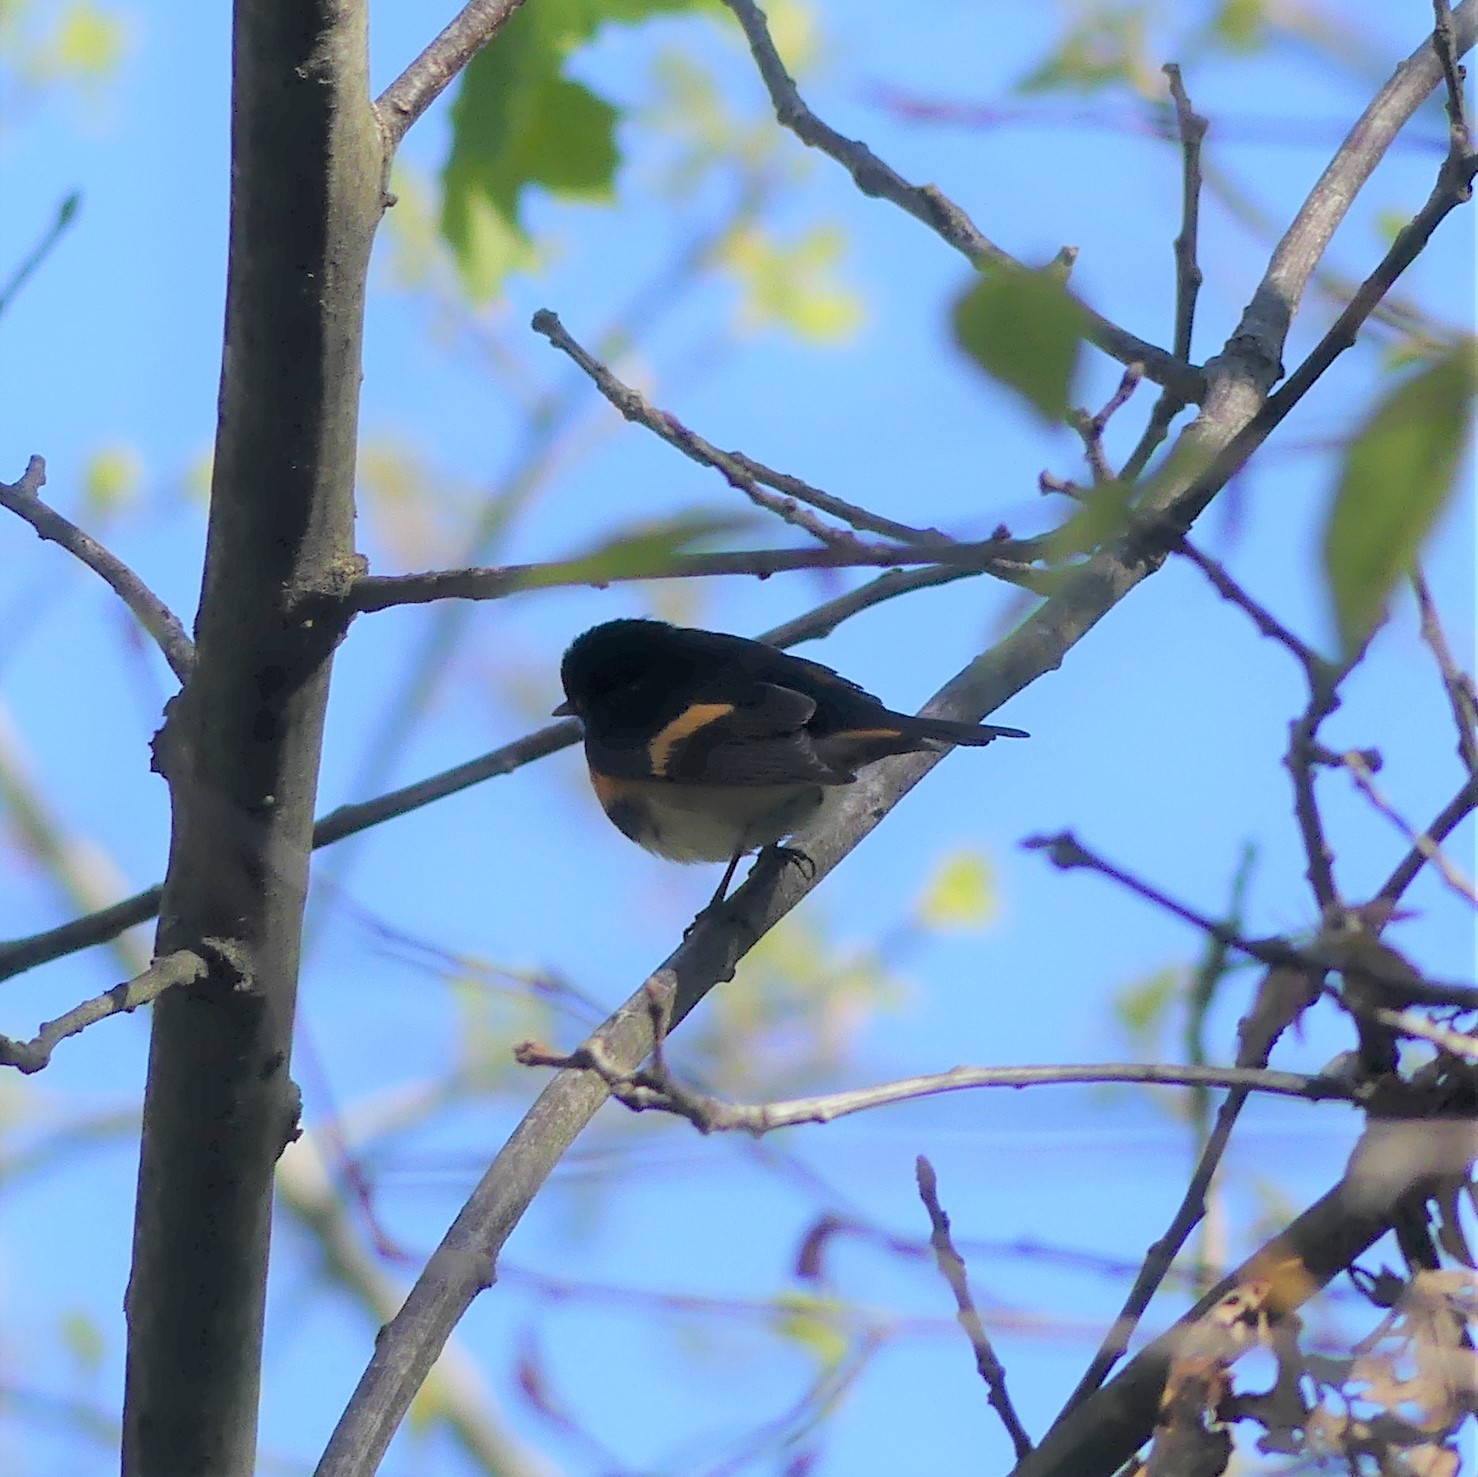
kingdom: Animalia
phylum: Chordata
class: Aves
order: Passeriformes
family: Parulidae
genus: Setophaga
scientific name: Setophaga ruticilla
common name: American redstart
